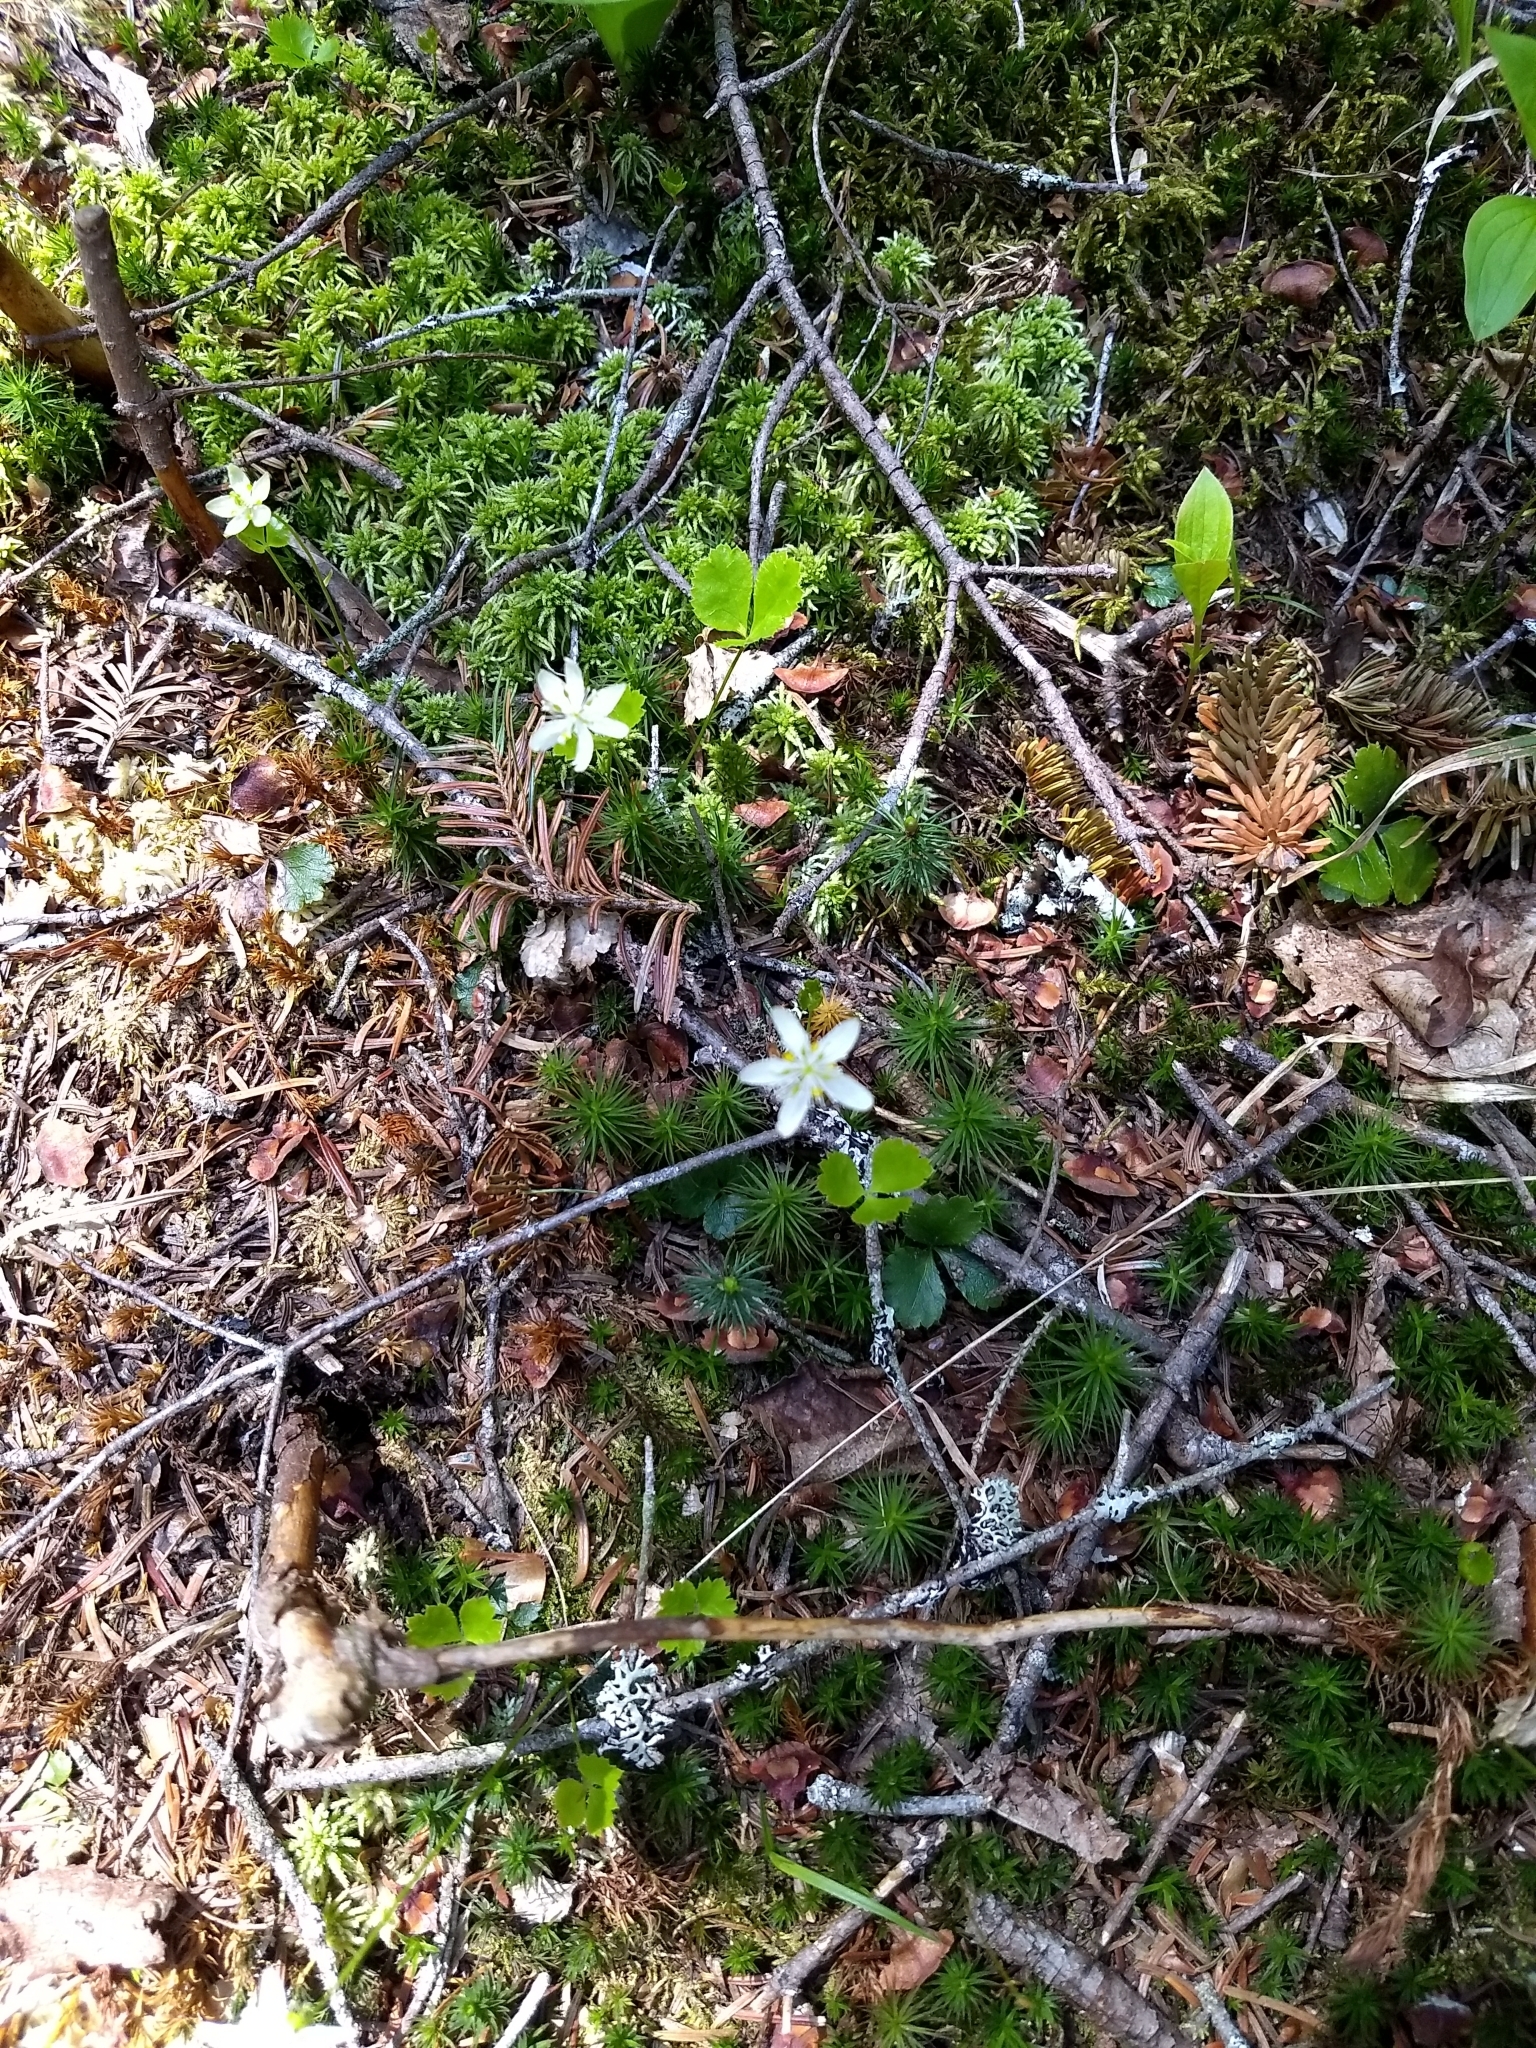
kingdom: Plantae
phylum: Tracheophyta
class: Magnoliopsida
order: Ranunculales
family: Ranunculaceae
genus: Coptis
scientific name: Coptis trifolia
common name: Canker-root
